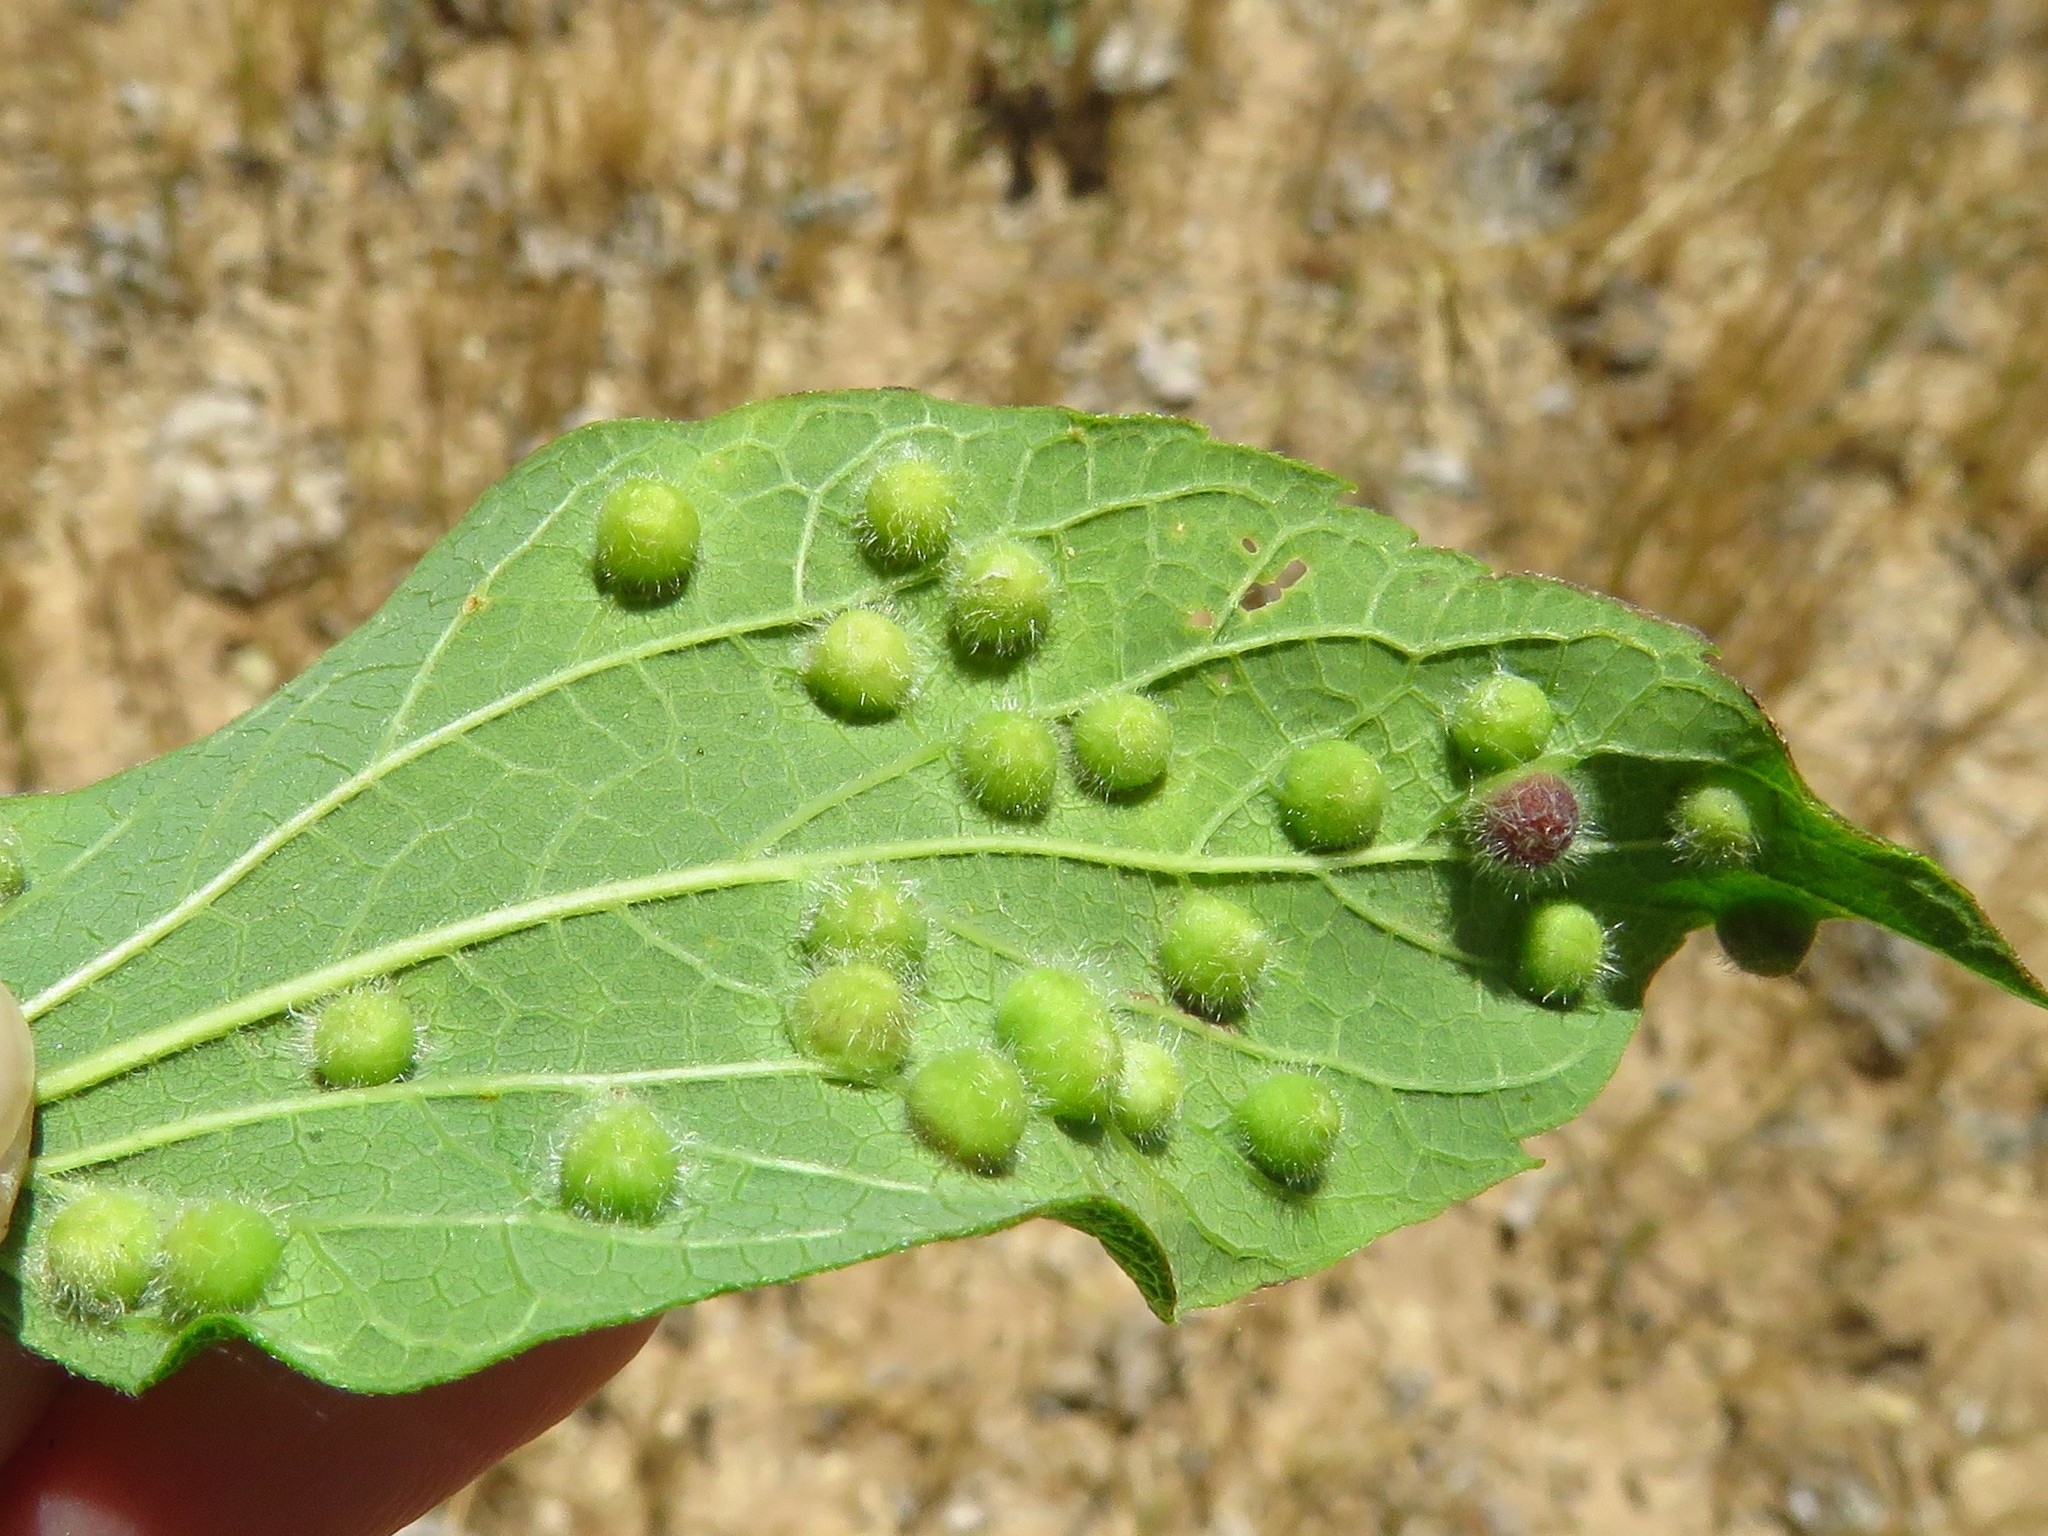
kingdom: Animalia
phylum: Arthropoda
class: Insecta
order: Hemiptera
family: Aphalaridae
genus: Pachypsylla
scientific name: Pachypsylla celtidismamma
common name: Hackberry nipplegall psyllid
